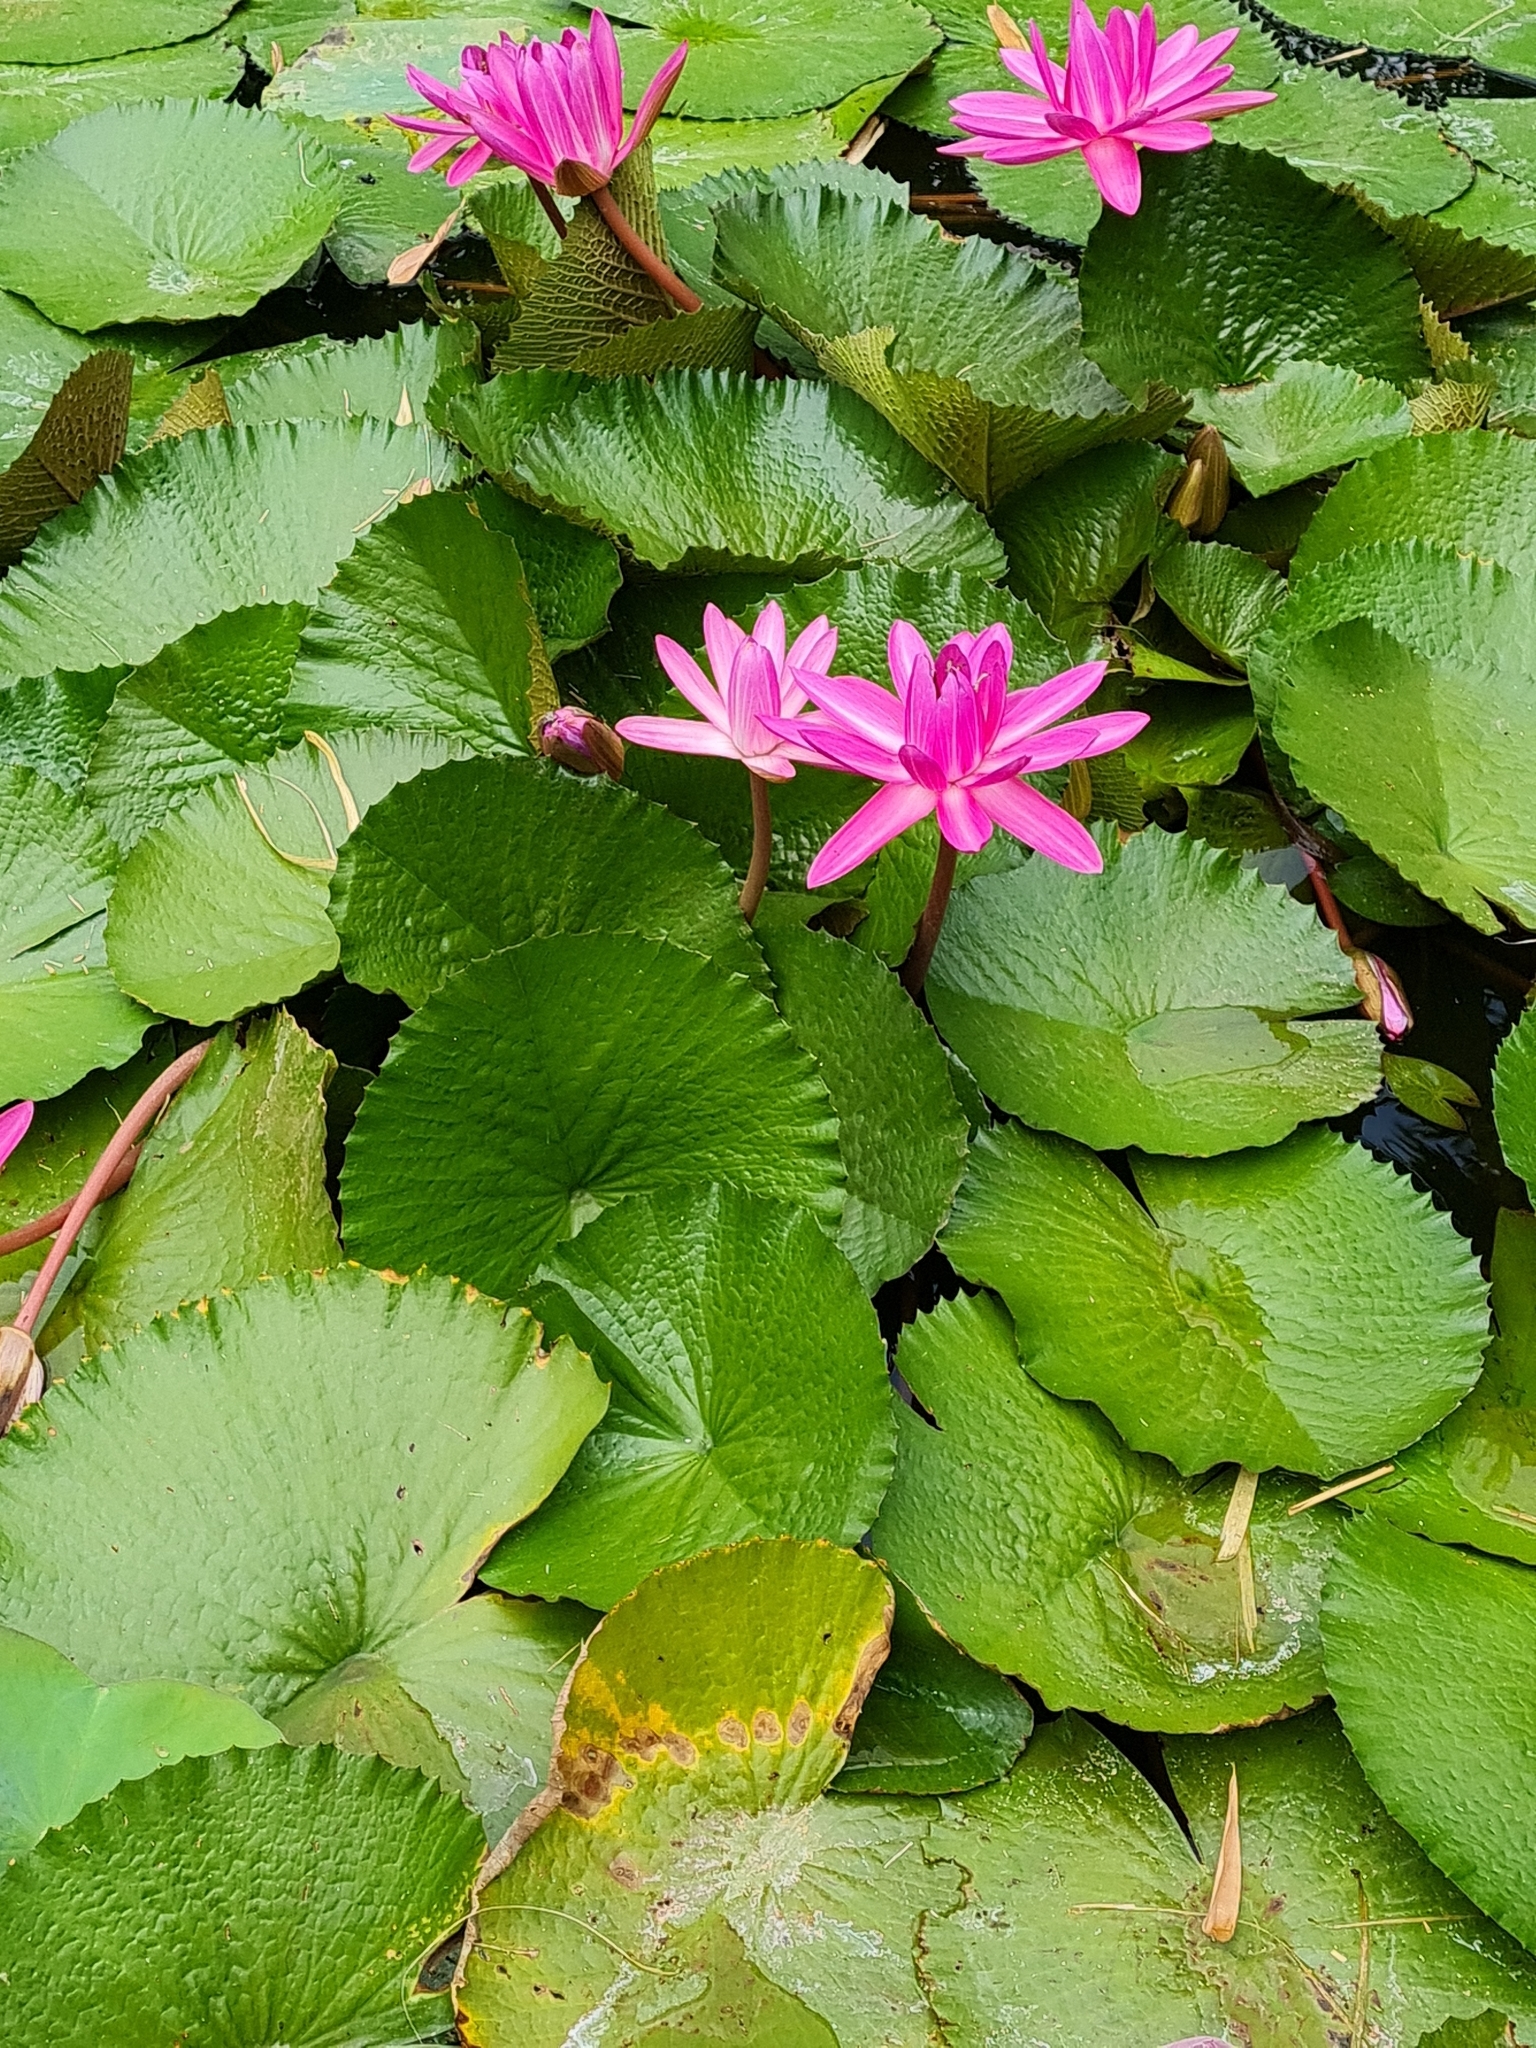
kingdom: Plantae
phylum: Tracheophyta
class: Magnoliopsida
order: Nymphaeales
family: Nymphaeaceae
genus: Nymphaea
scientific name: Nymphaea rubra
